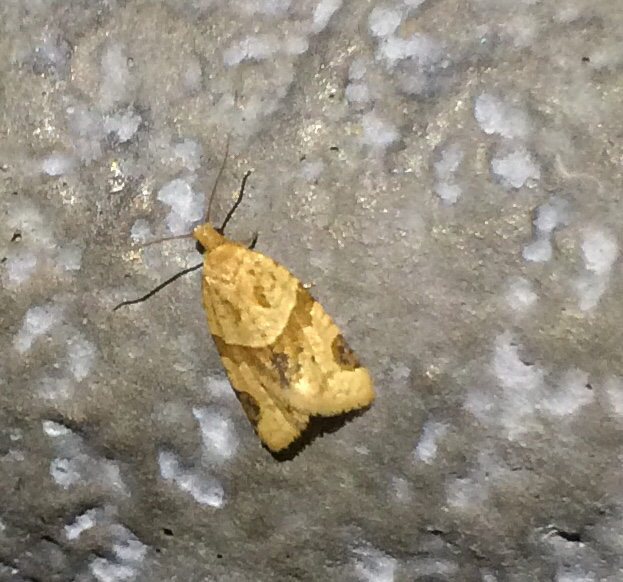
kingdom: Animalia
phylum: Arthropoda
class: Insecta
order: Lepidoptera
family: Tortricidae
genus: Clepsis
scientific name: Clepsis peritana
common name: Garden tortrix
